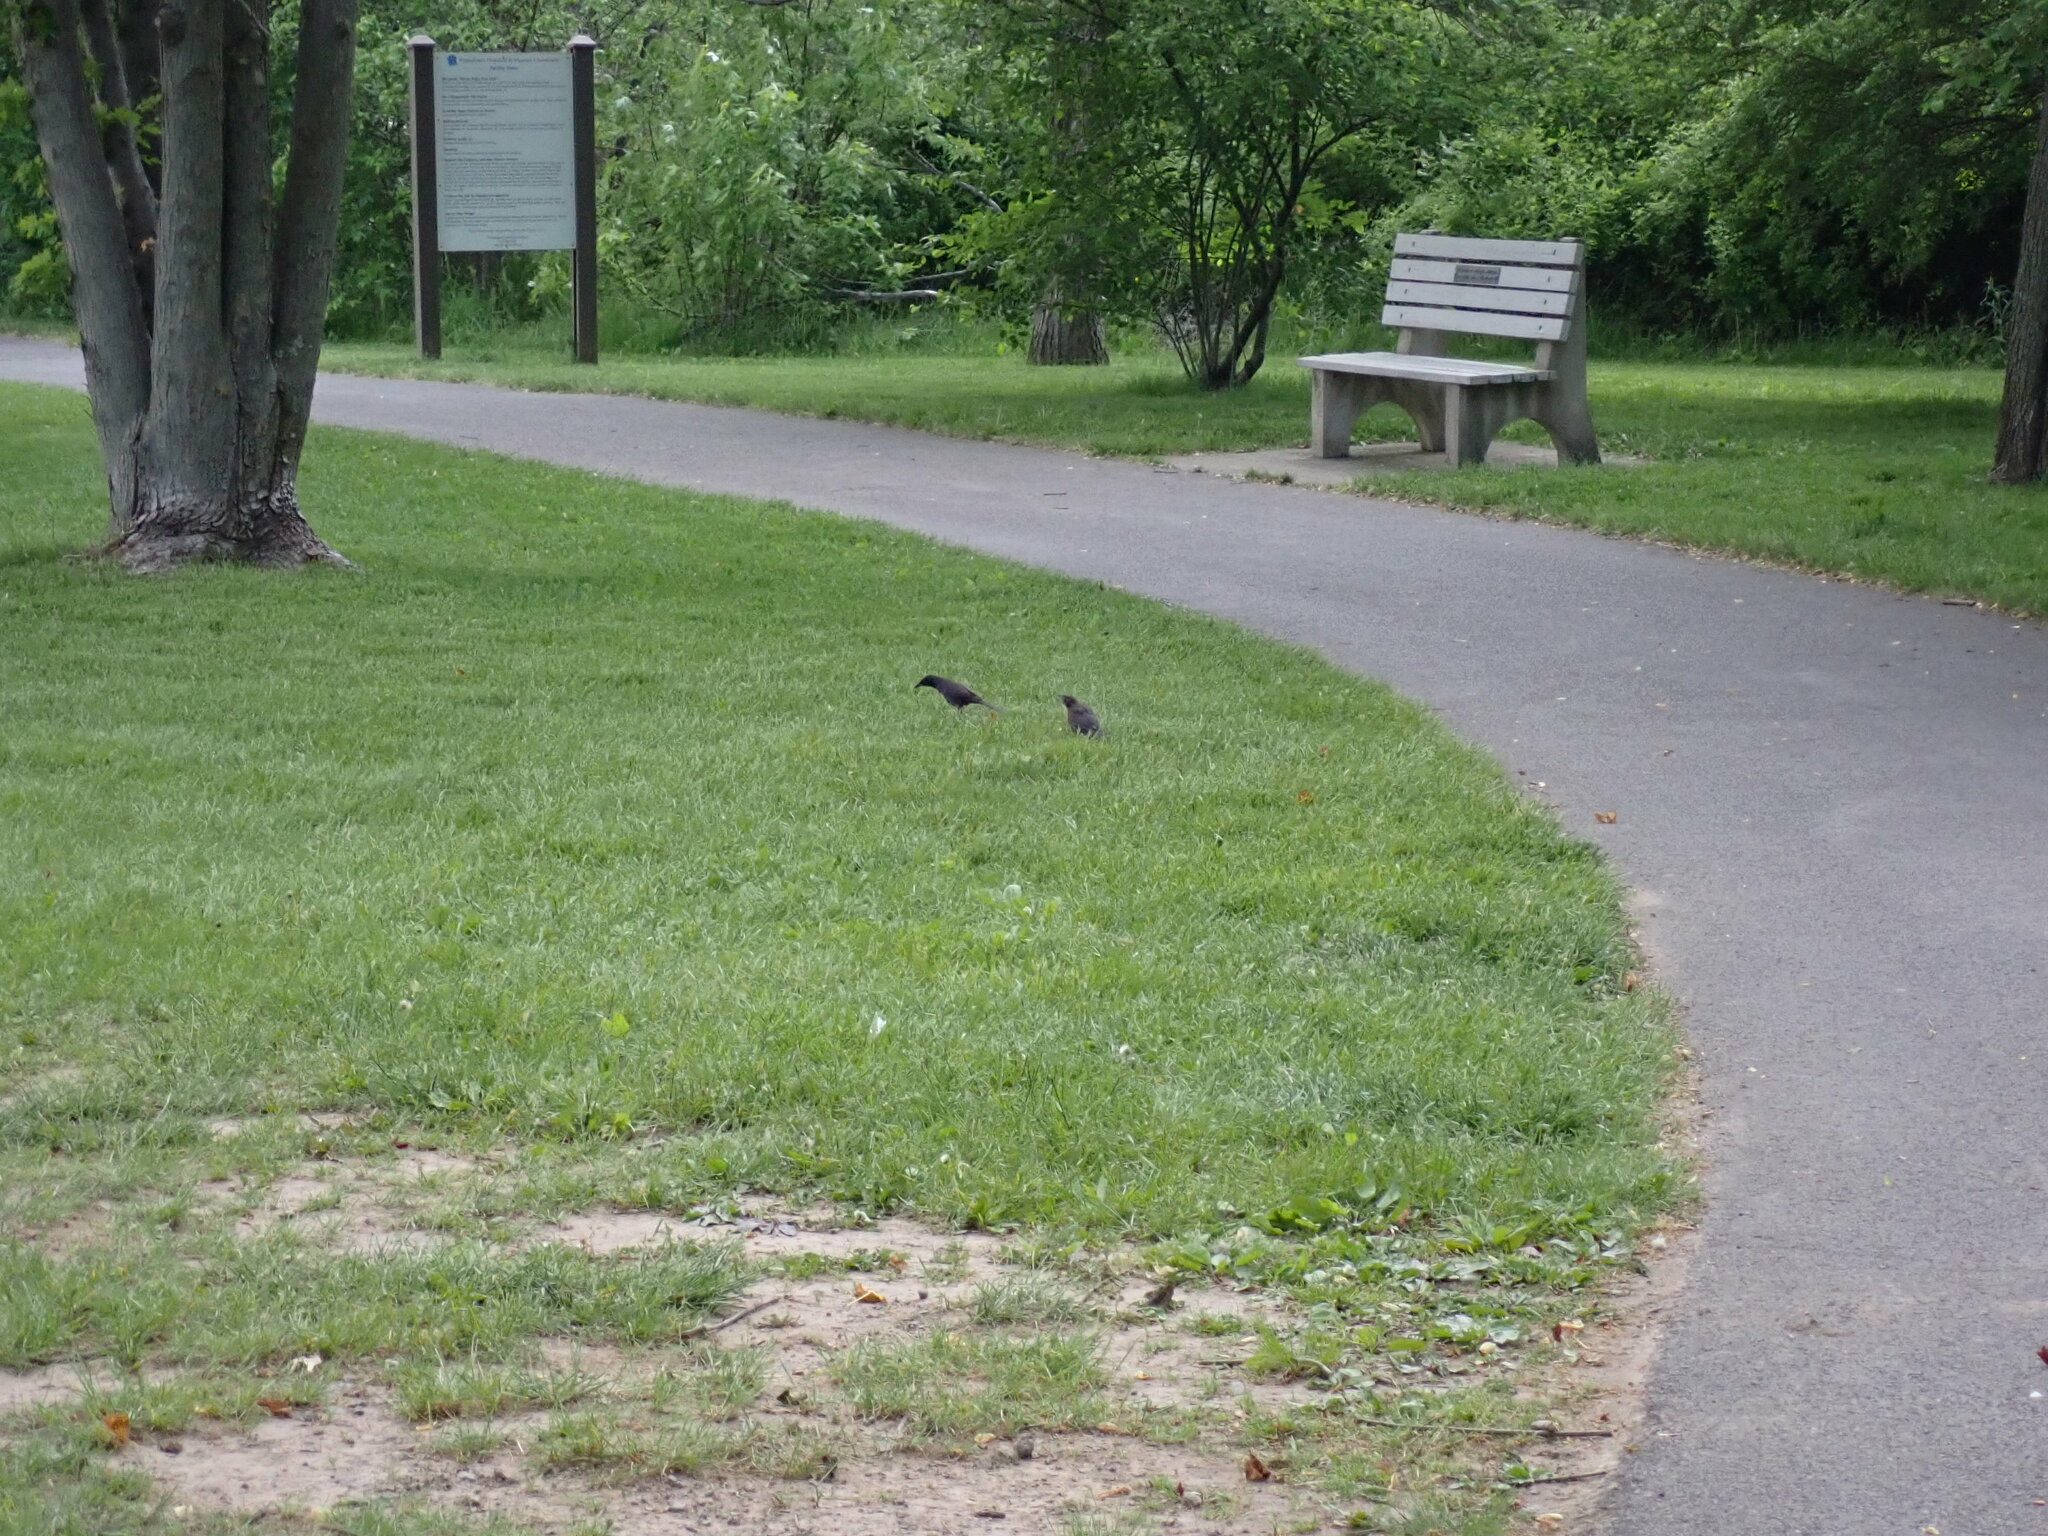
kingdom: Animalia
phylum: Chordata
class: Aves
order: Passeriformes
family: Icteridae
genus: Quiscalus
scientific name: Quiscalus quiscula
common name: Common grackle
